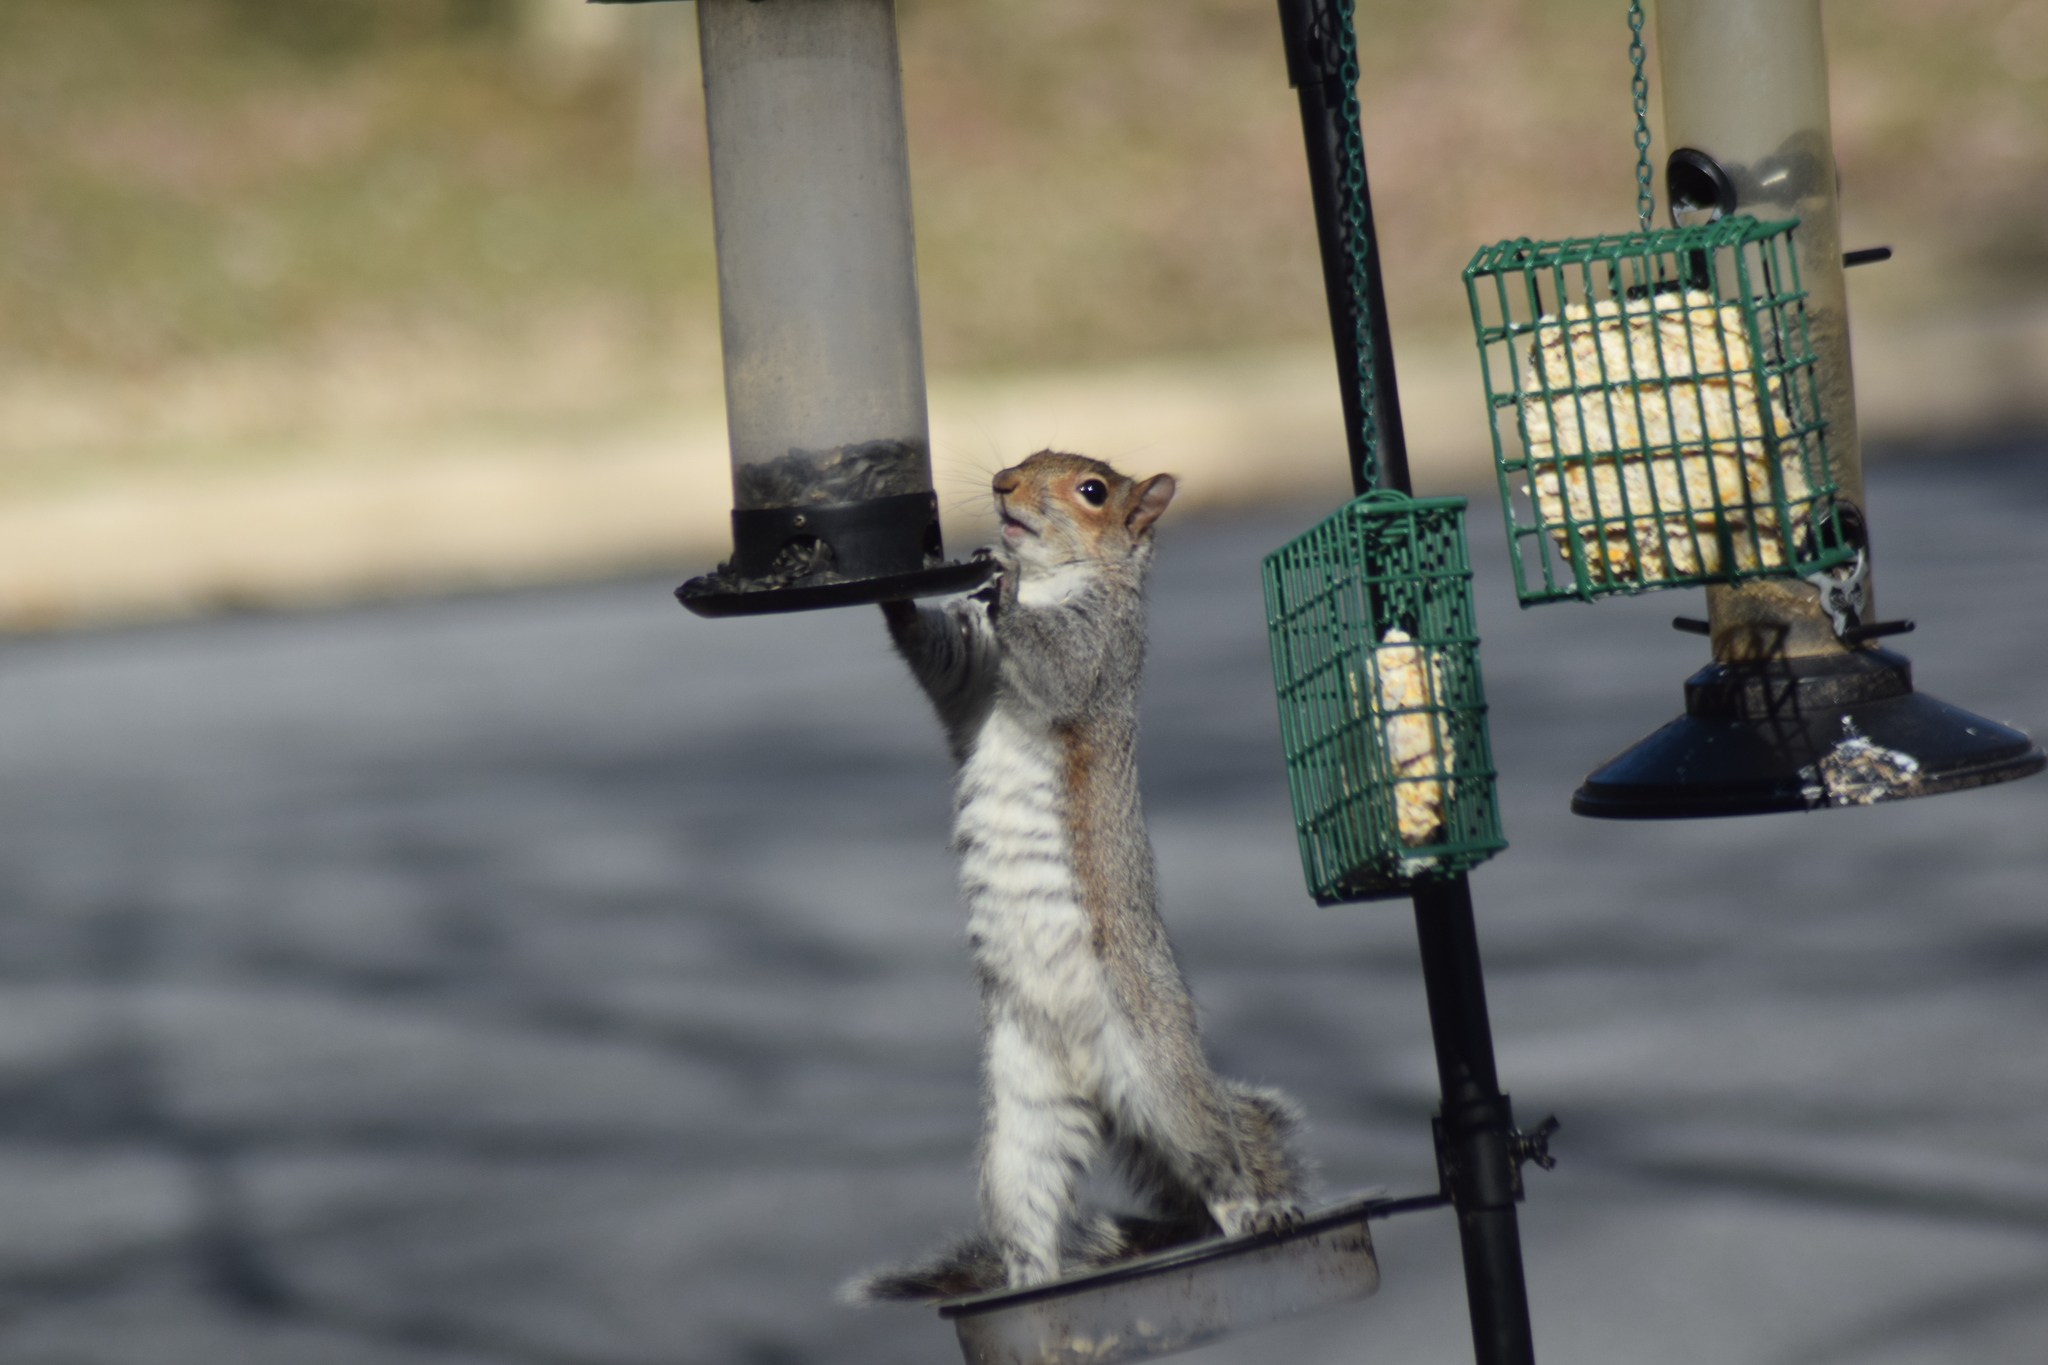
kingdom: Animalia
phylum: Chordata
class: Mammalia
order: Rodentia
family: Sciuridae
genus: Sciurus
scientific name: Sciurus carolinensis
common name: Eastern gray squirrel
